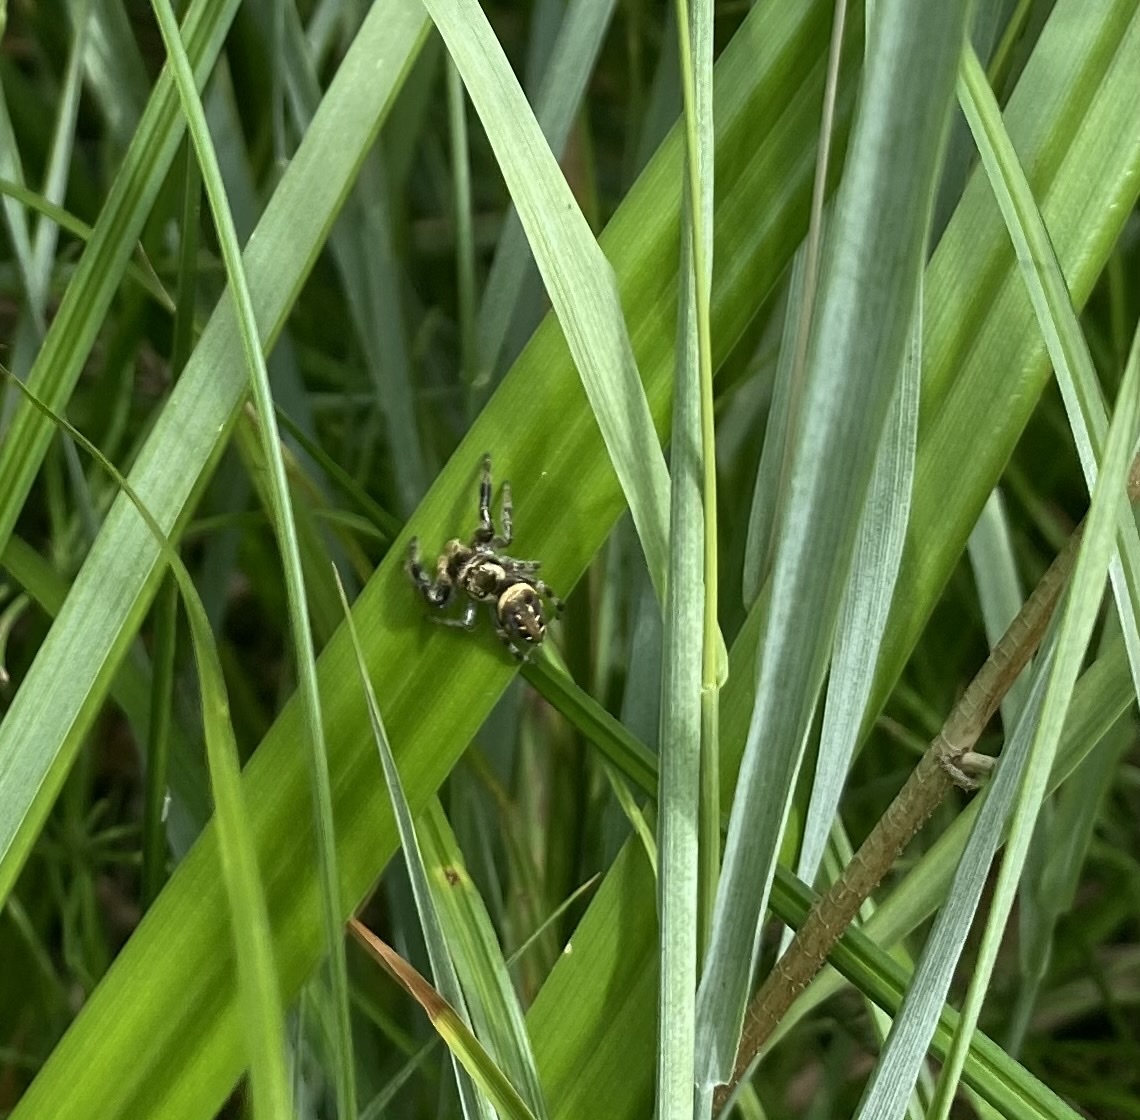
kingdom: Animalia
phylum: Arthropoda
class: Arachnida
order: Araneae
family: Salticidae
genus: Paraphidippus
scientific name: Paraphidippus aurantius
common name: Jumping spiders
